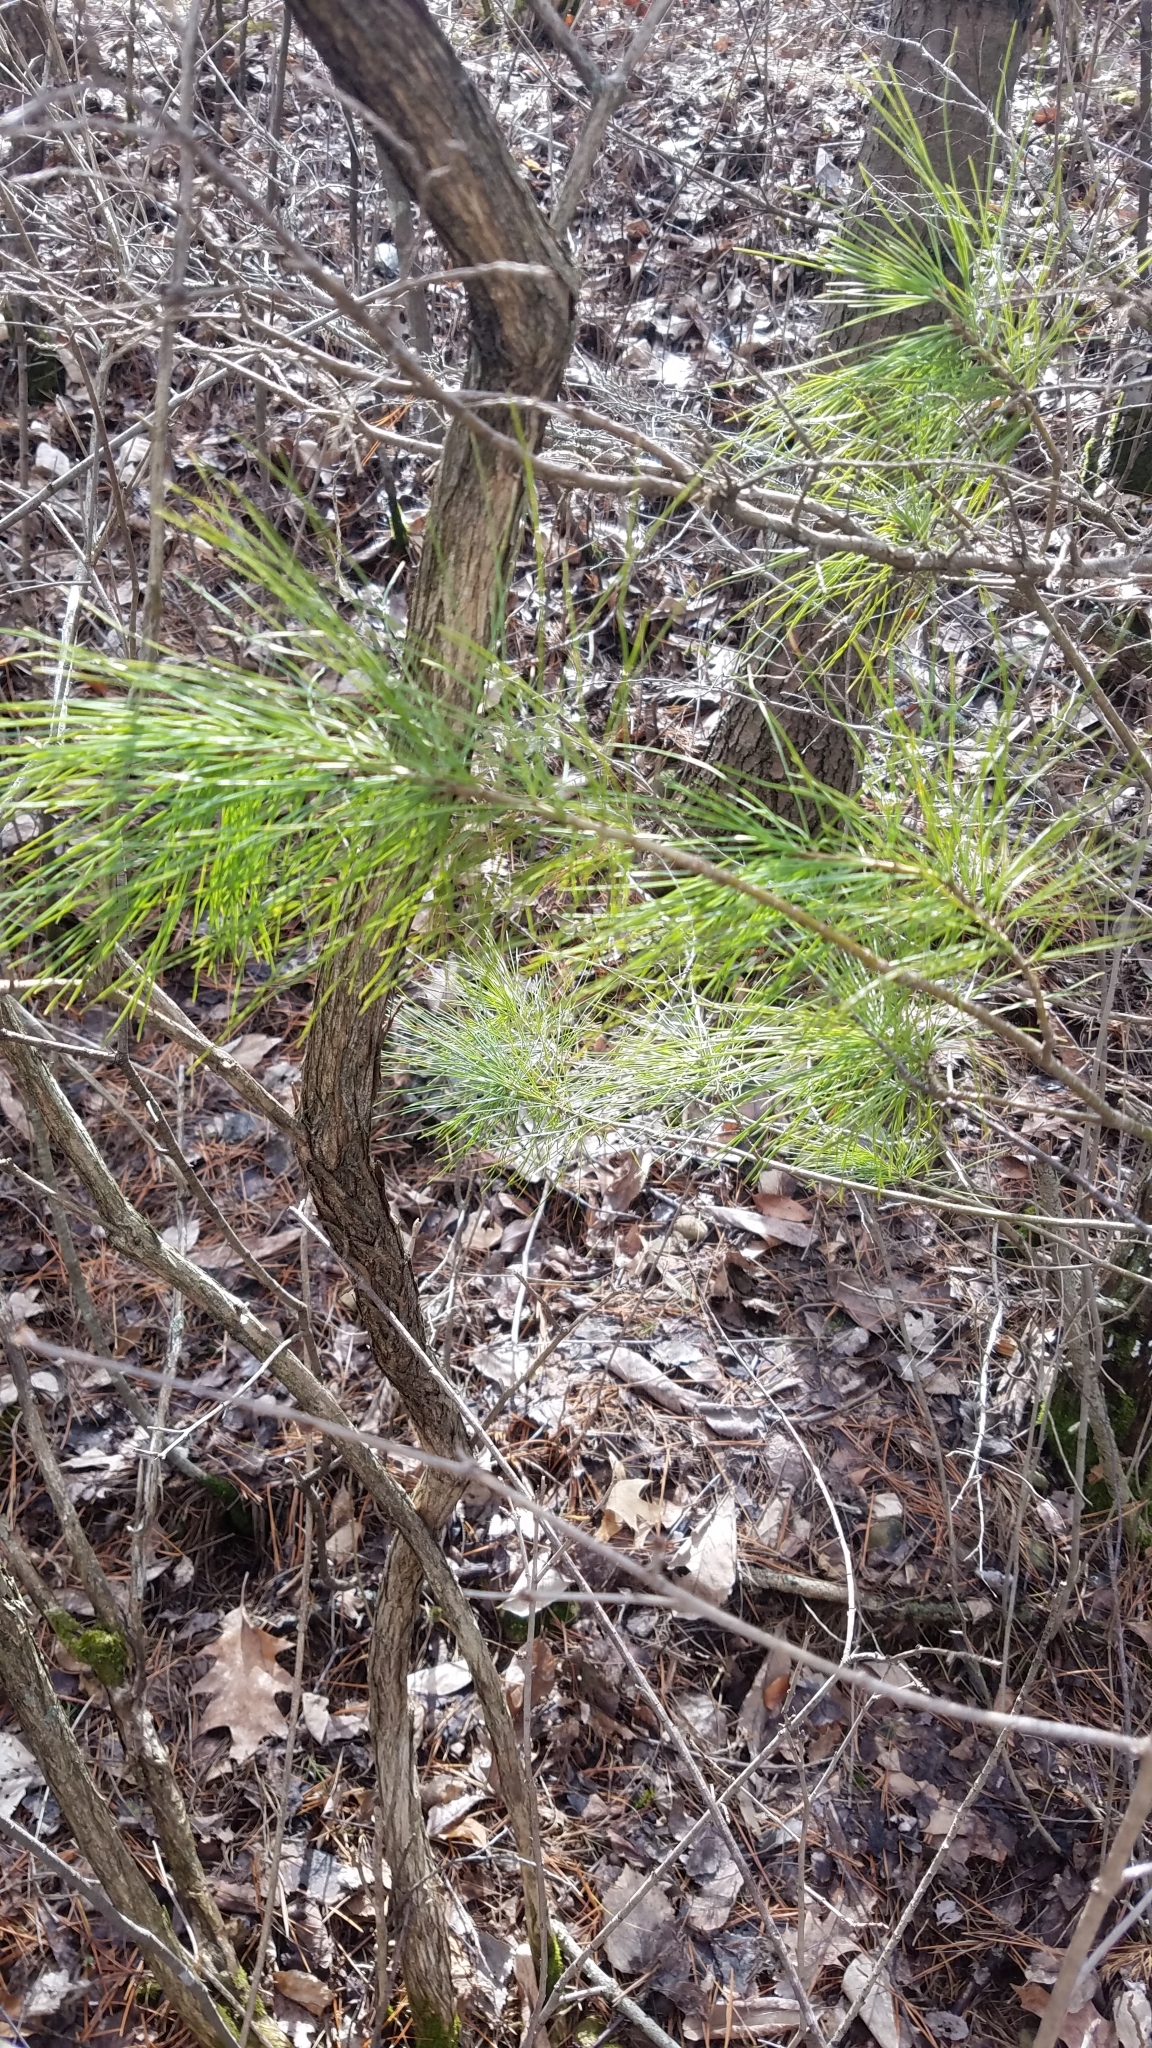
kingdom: Plantae
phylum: Tracheophyta
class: Pinopsida
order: Pinales
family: Pinaceae
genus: Pinus
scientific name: Pinus strobus
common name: Weymouth pine
